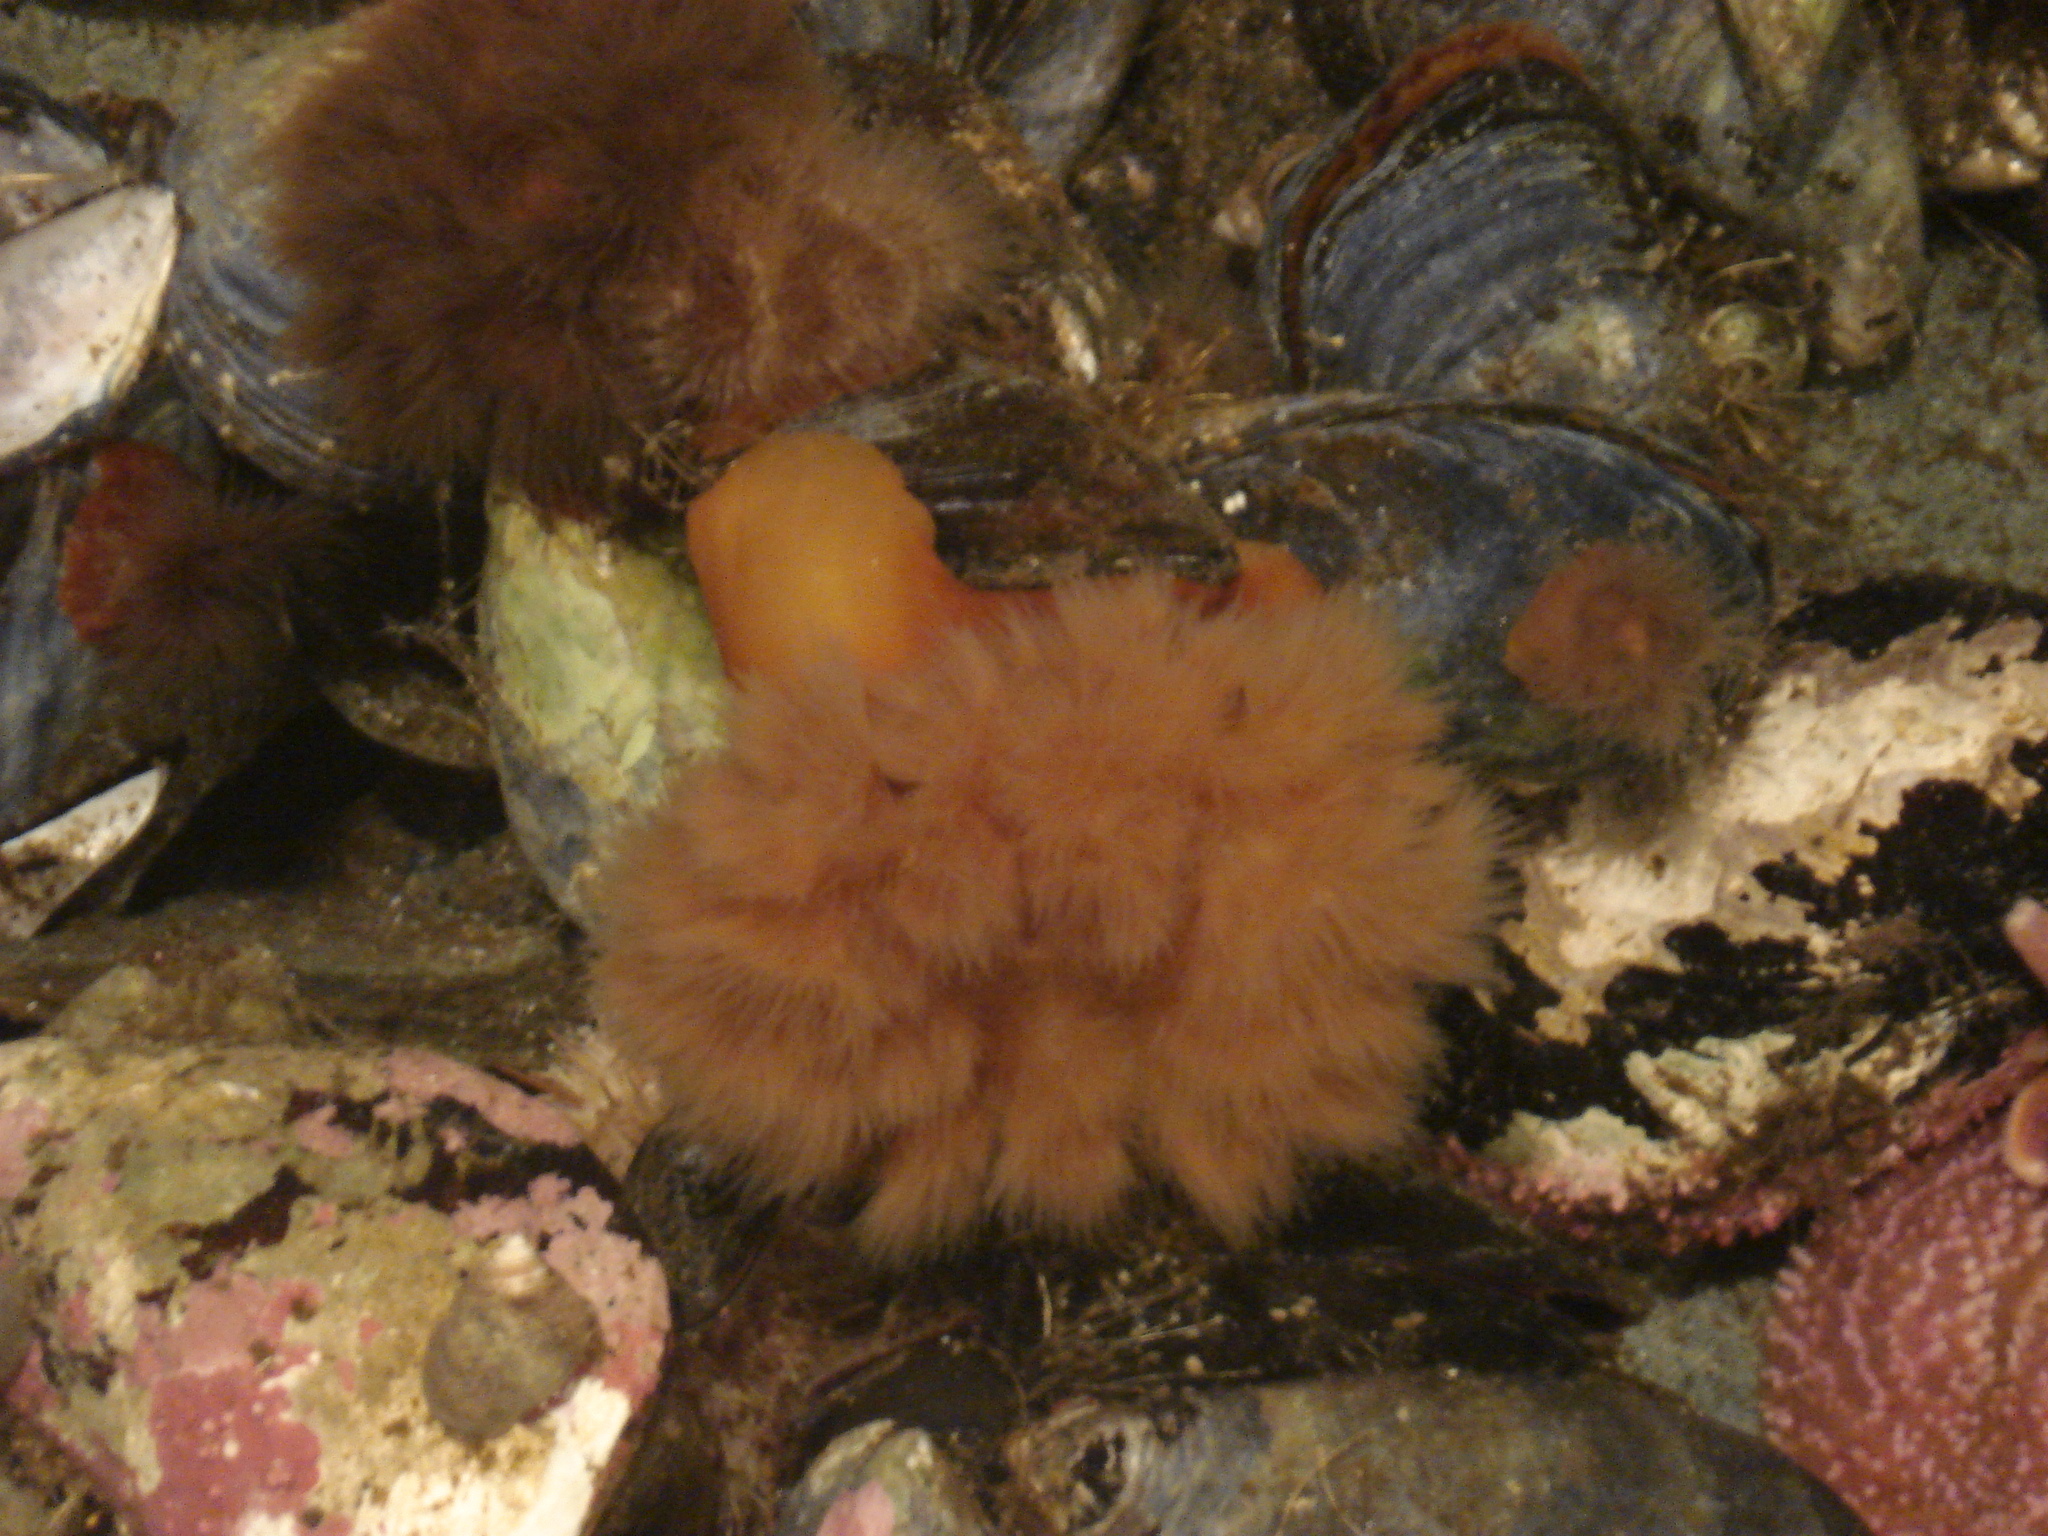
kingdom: Animalia
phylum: Cnidaria
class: Anthozoa
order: Actiniaria
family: Metridiidae
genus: Metridium
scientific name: Metridium senile
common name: Clonal plumose anemone
